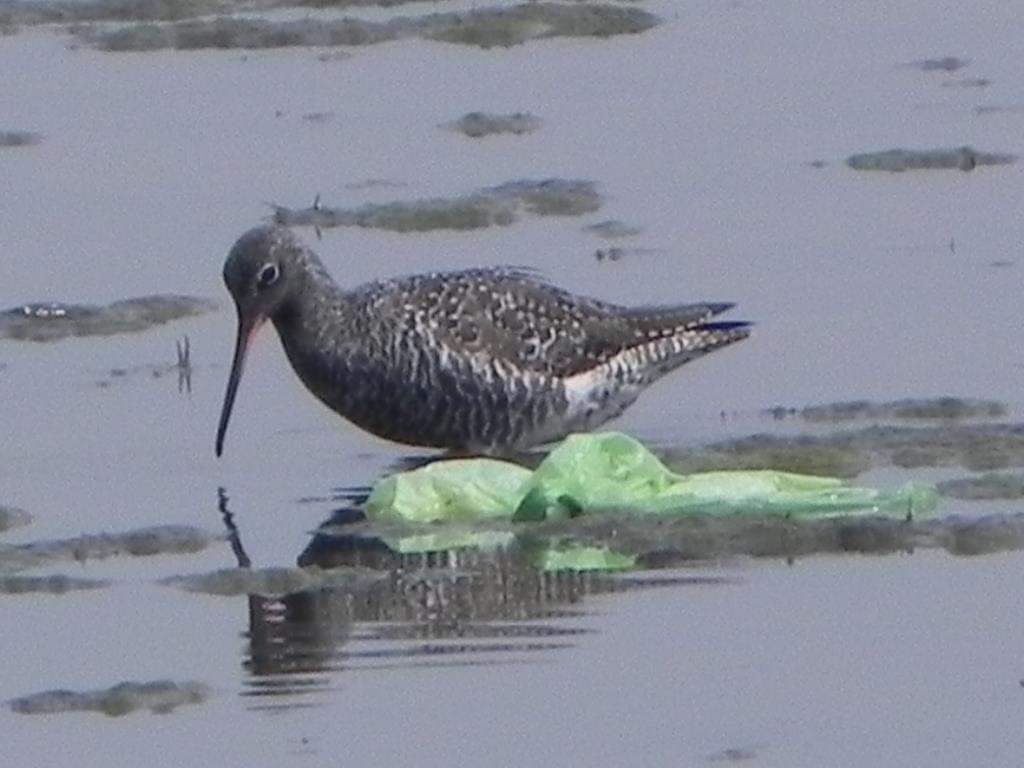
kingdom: Animalia
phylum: Chordata
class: Aves
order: Charadriiformes
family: Scolopacidae
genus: Tringa
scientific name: Tringa erythropus
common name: Spotted redshank
